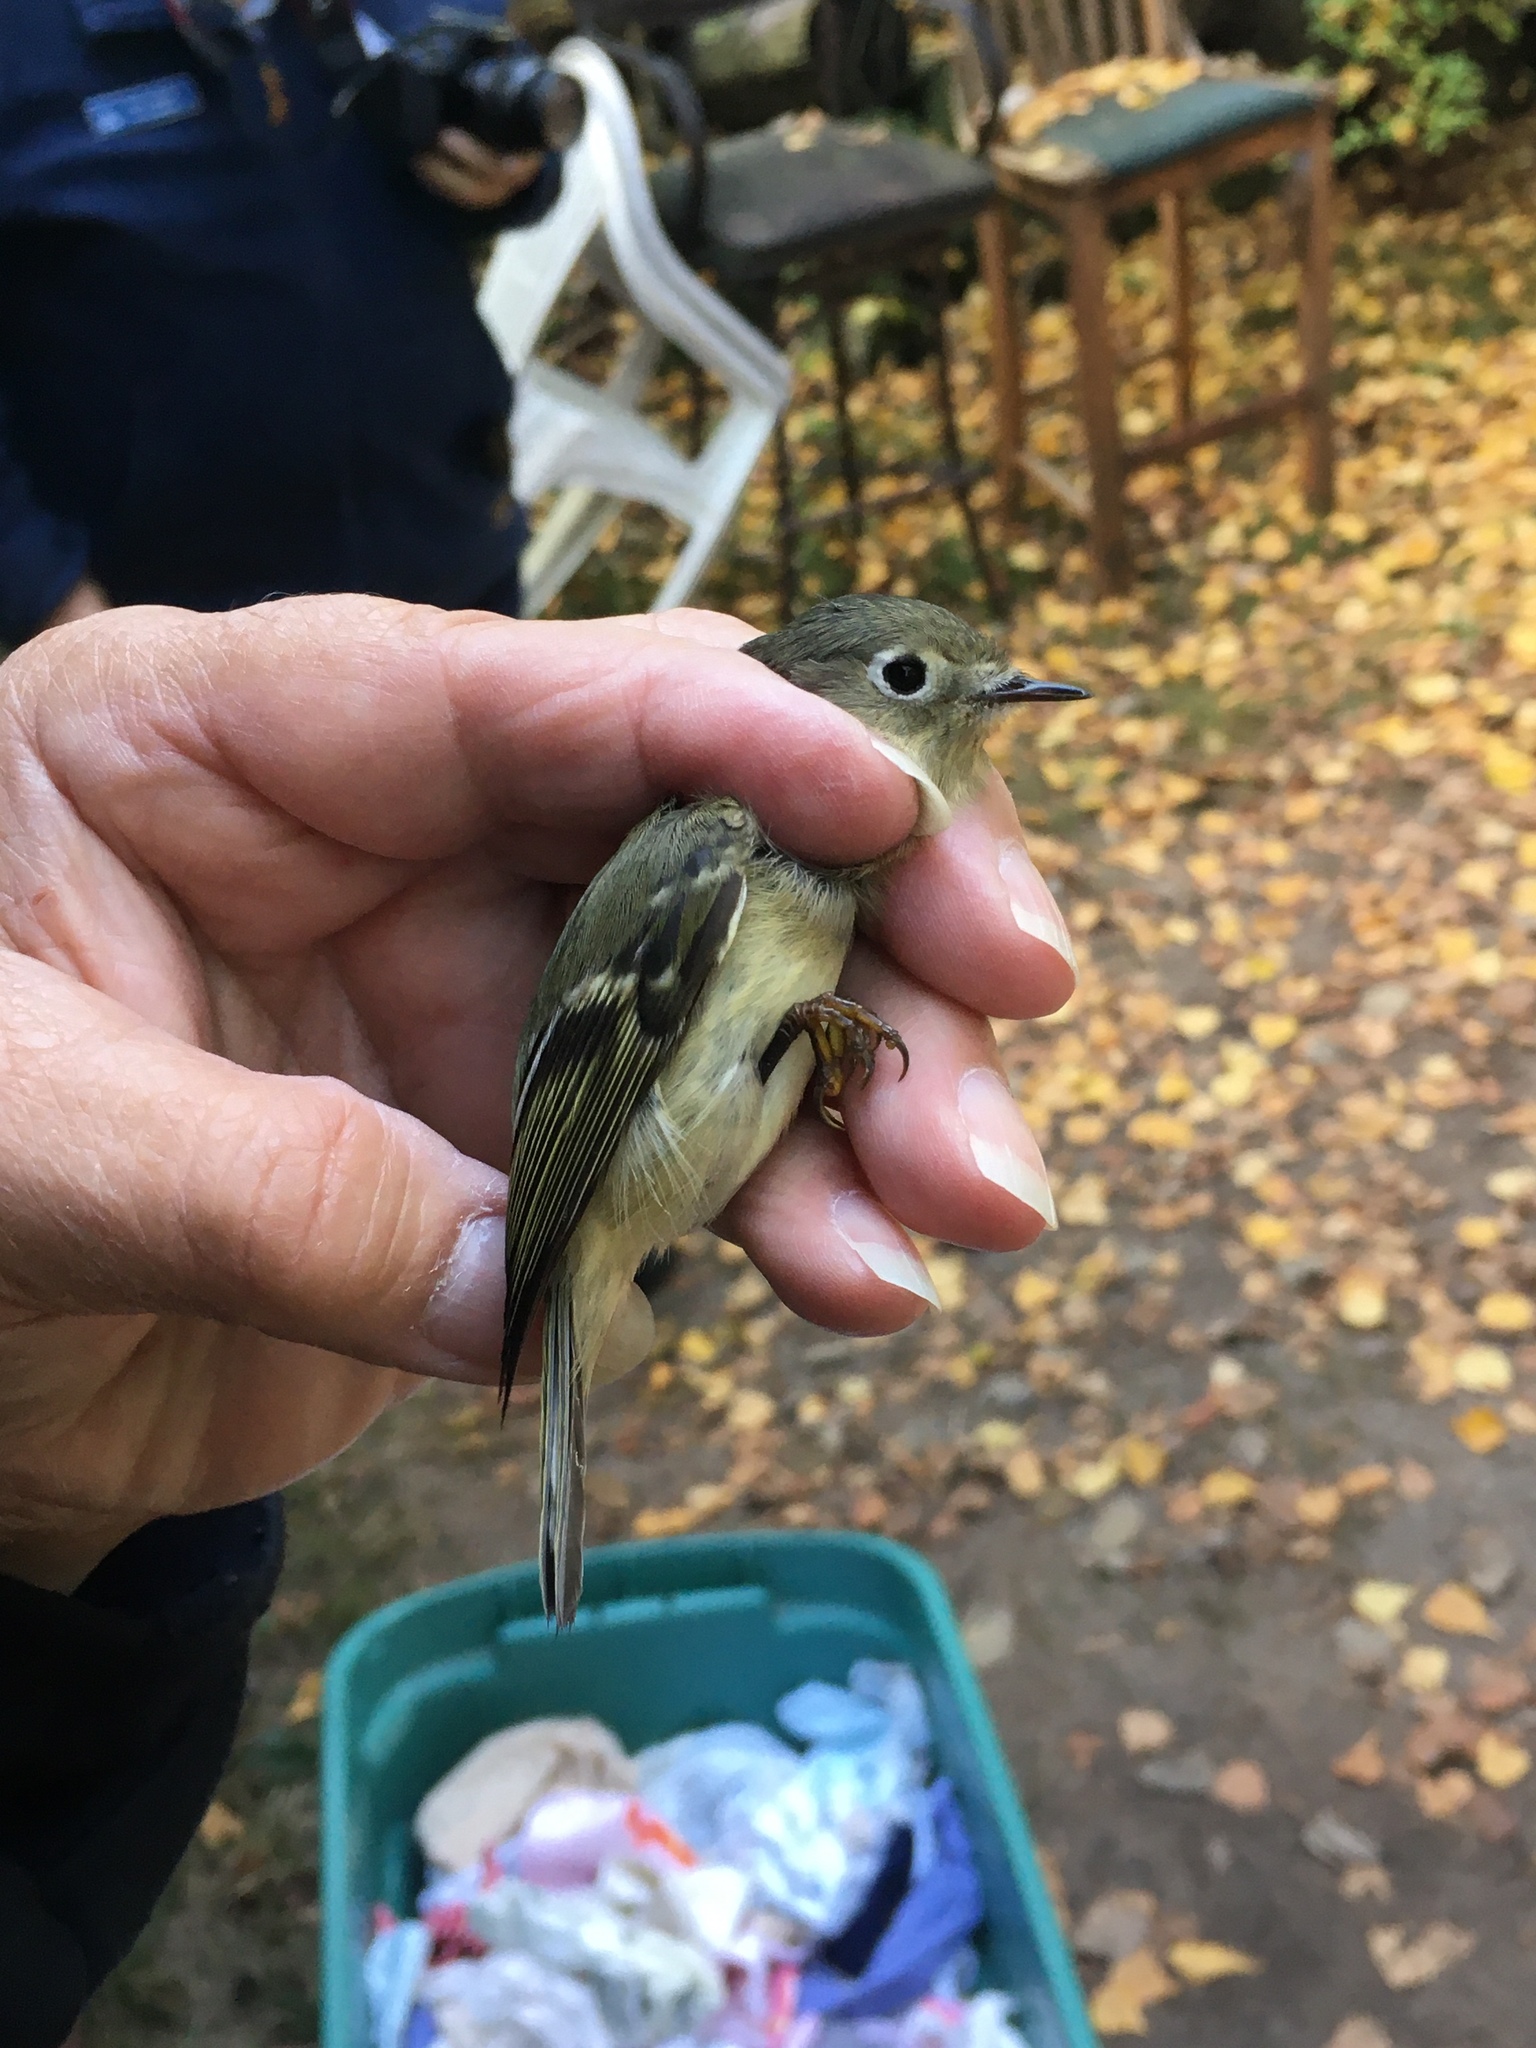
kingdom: Animalia
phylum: Chordata
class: Aves
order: Passeriformes
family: Regulidae
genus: Regulus
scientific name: Regulus calendula
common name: Ruby-crowned kinglet
